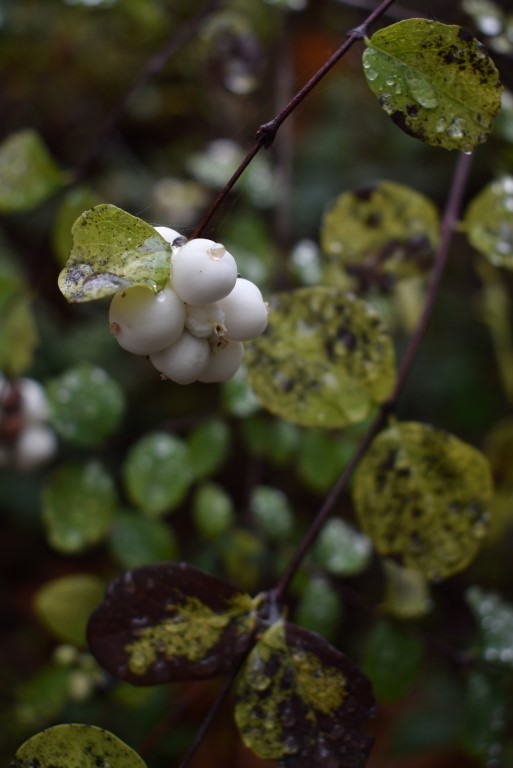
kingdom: Plantae
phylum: Tracheophyta
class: Magnoliopsida
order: Dipsacales
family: Caprifoliaceae
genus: Symphoricarpos
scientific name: Symphoricarpos albus
